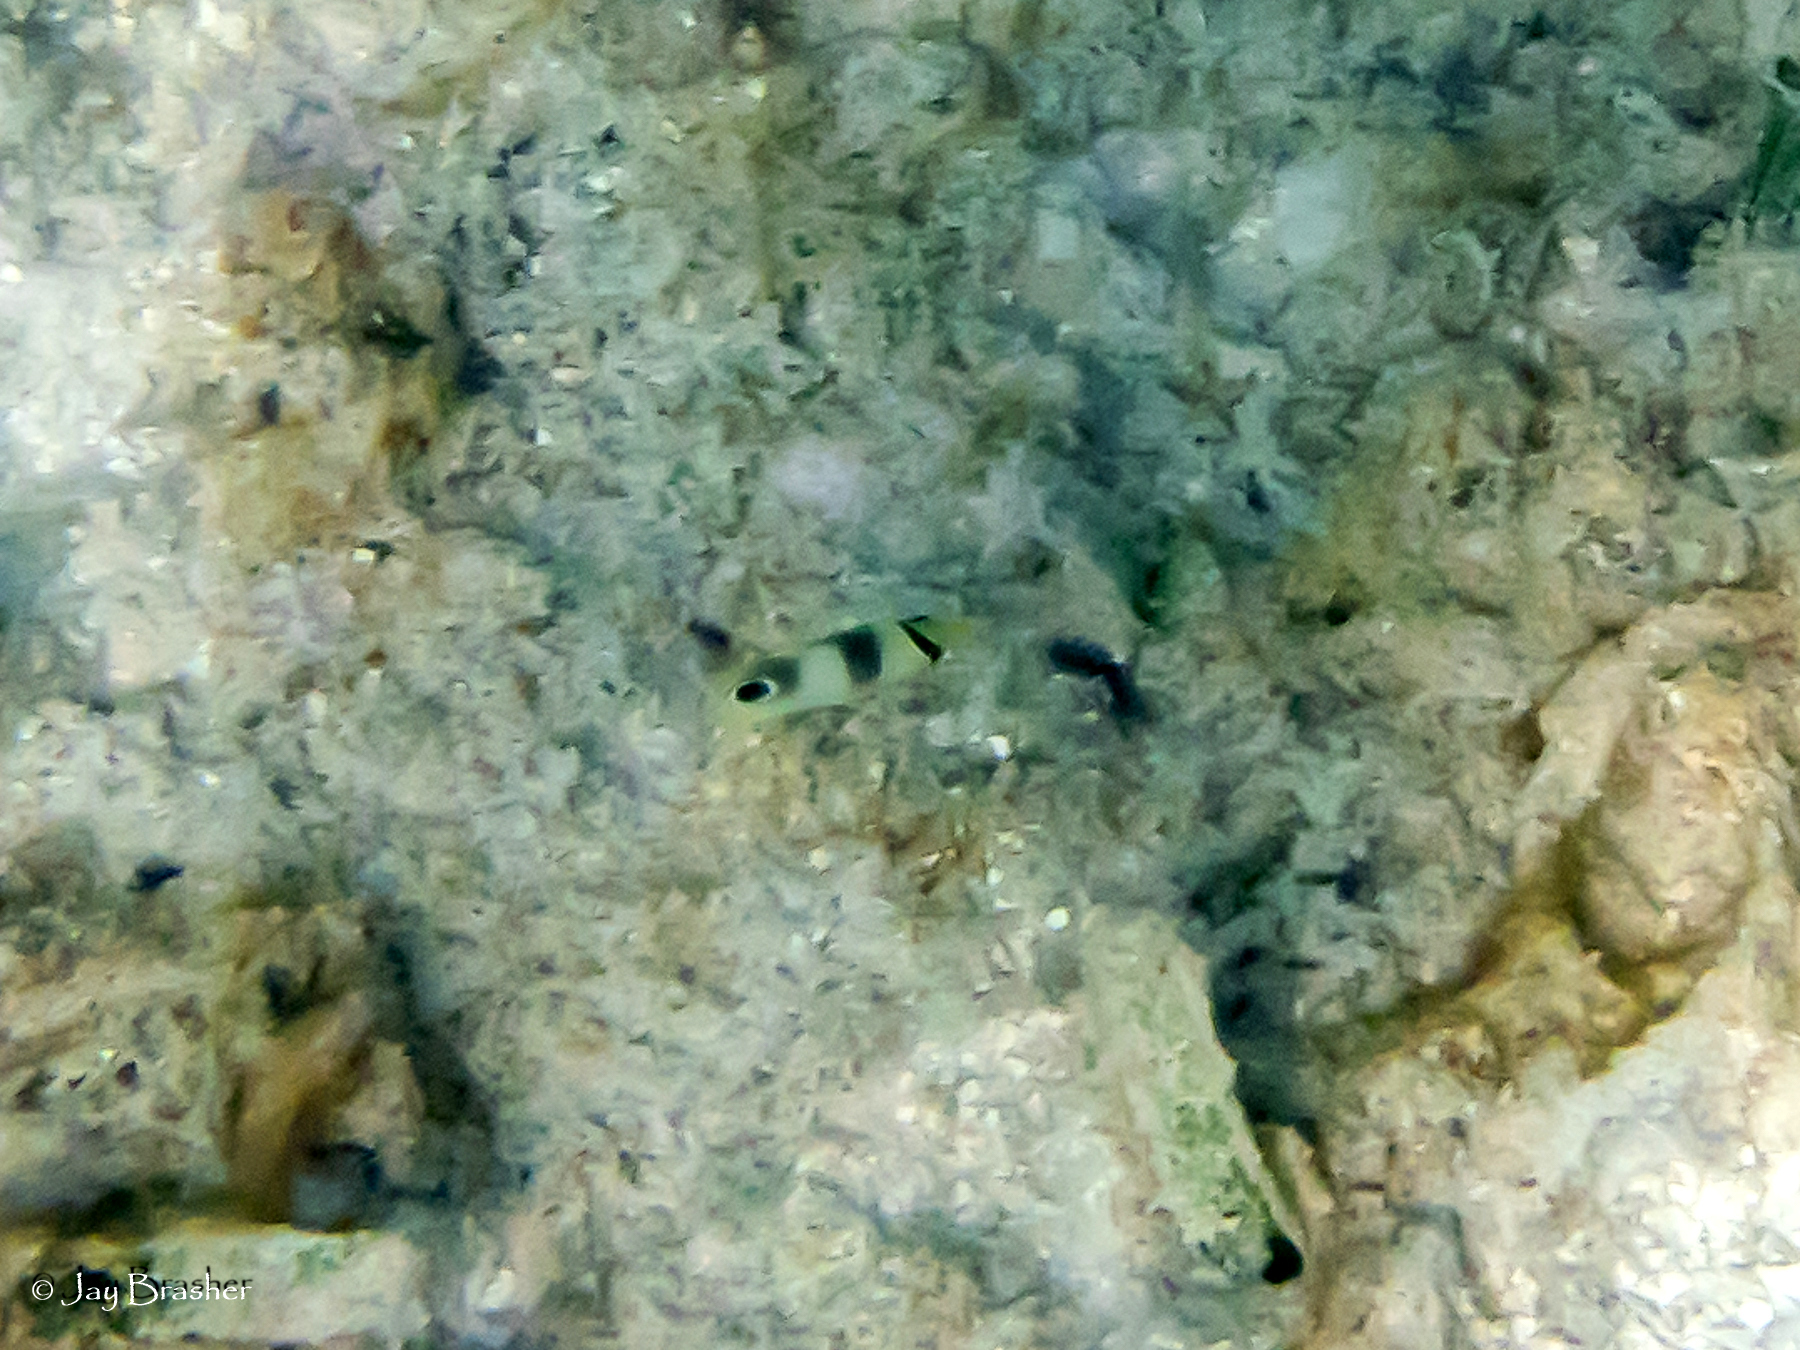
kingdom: Animalia
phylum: Chordata
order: Perciformes
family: Chaetodontidae
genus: Chaetodon
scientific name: Chaetodon capistratus
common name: Kete
